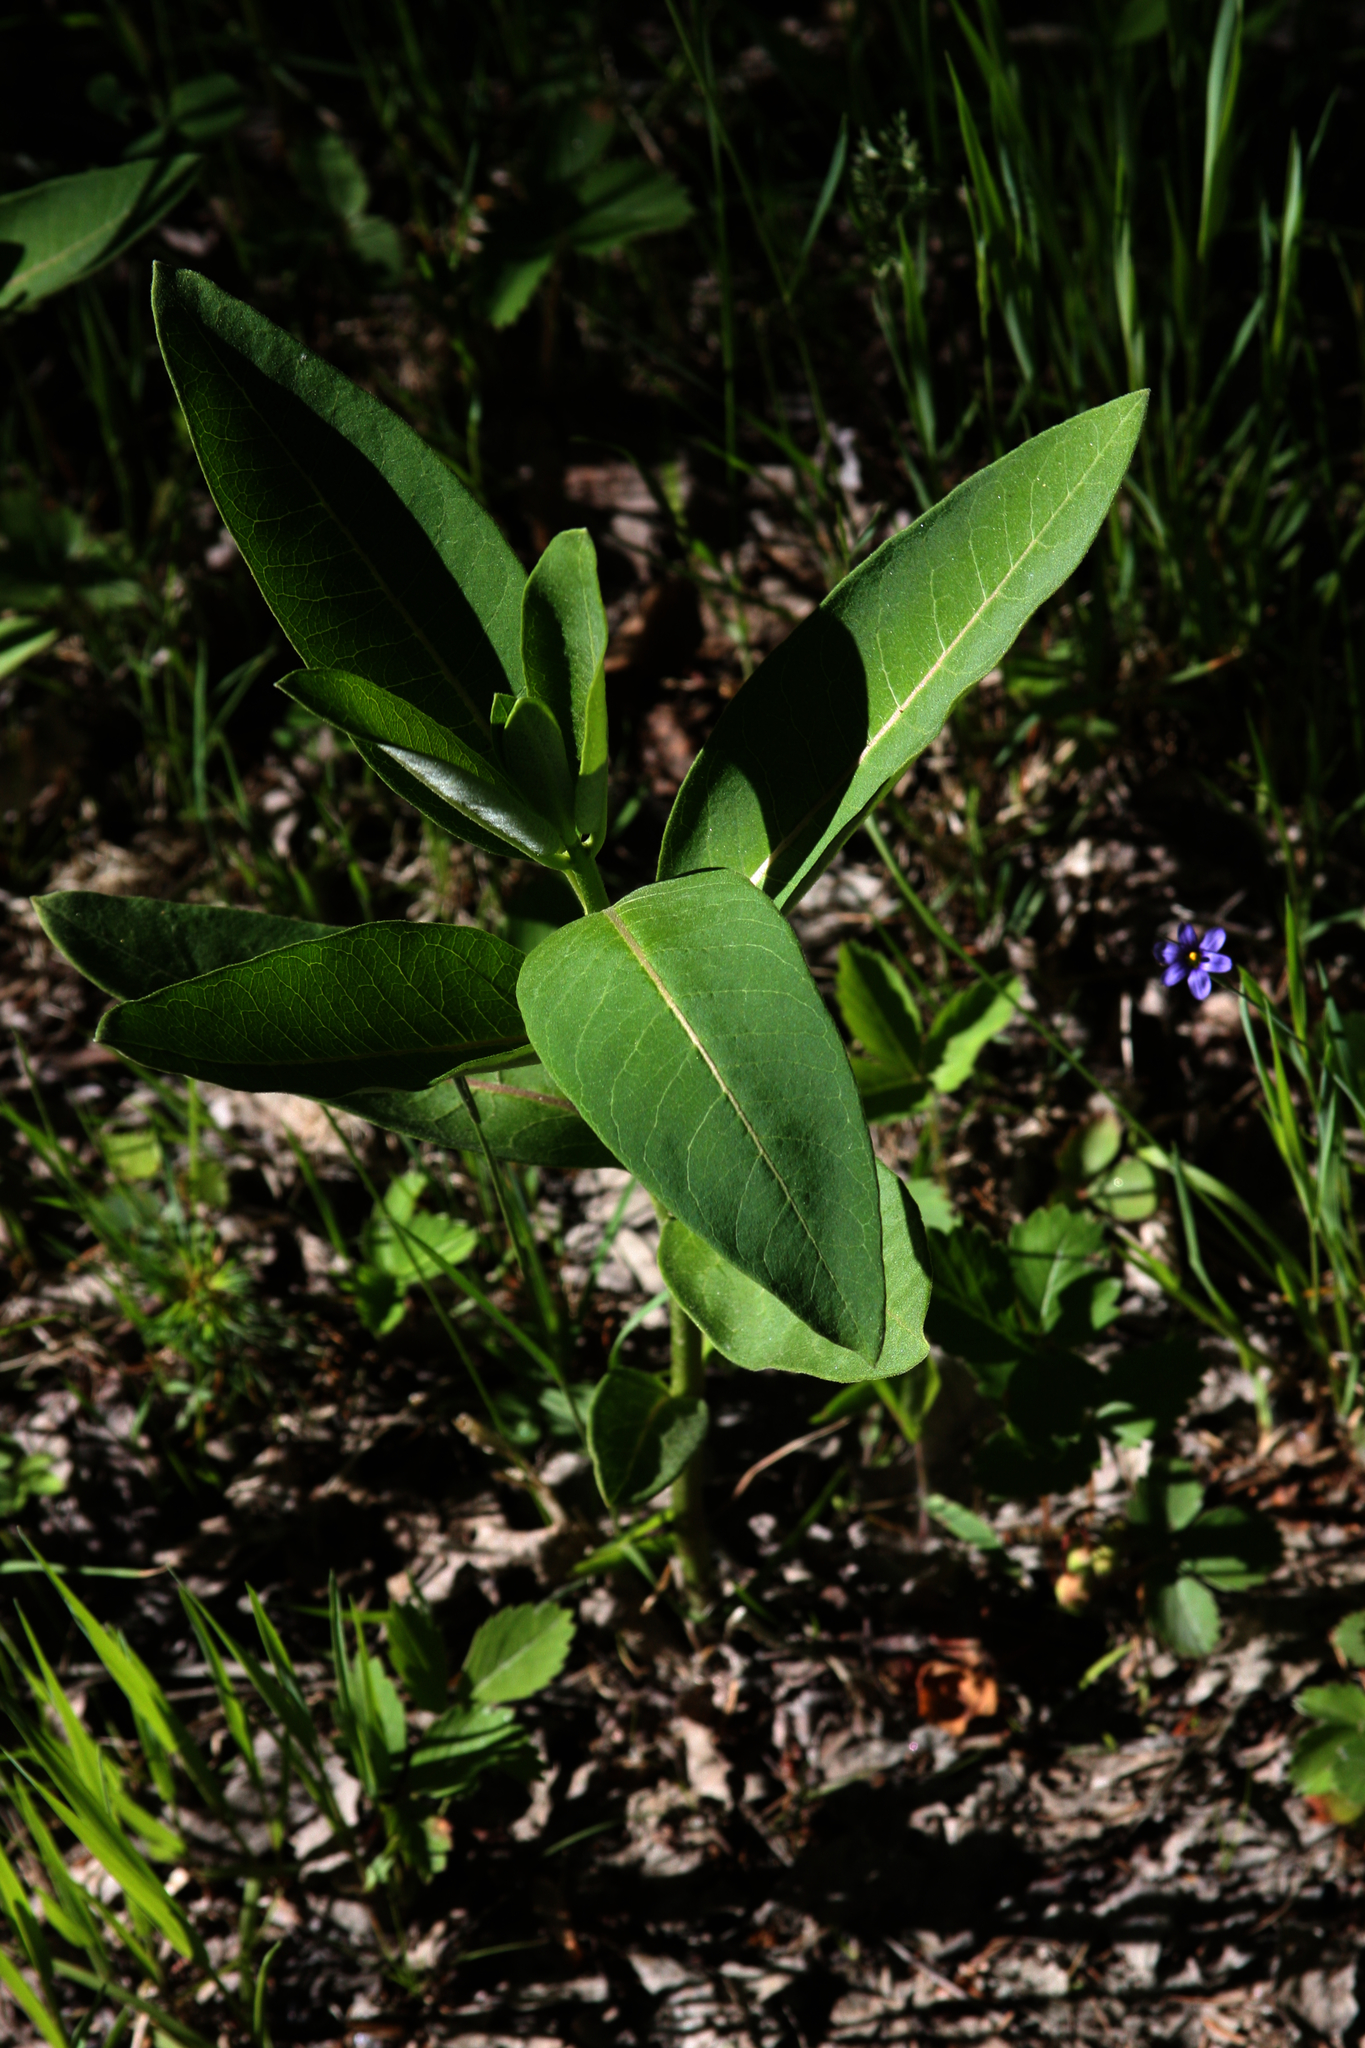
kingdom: Plantae
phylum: Tracheophyta
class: Magnoliopsida
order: Gentianales
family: Apocynaceae
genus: Asclepias
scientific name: Asclepias syriaca
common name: Common milkweed
